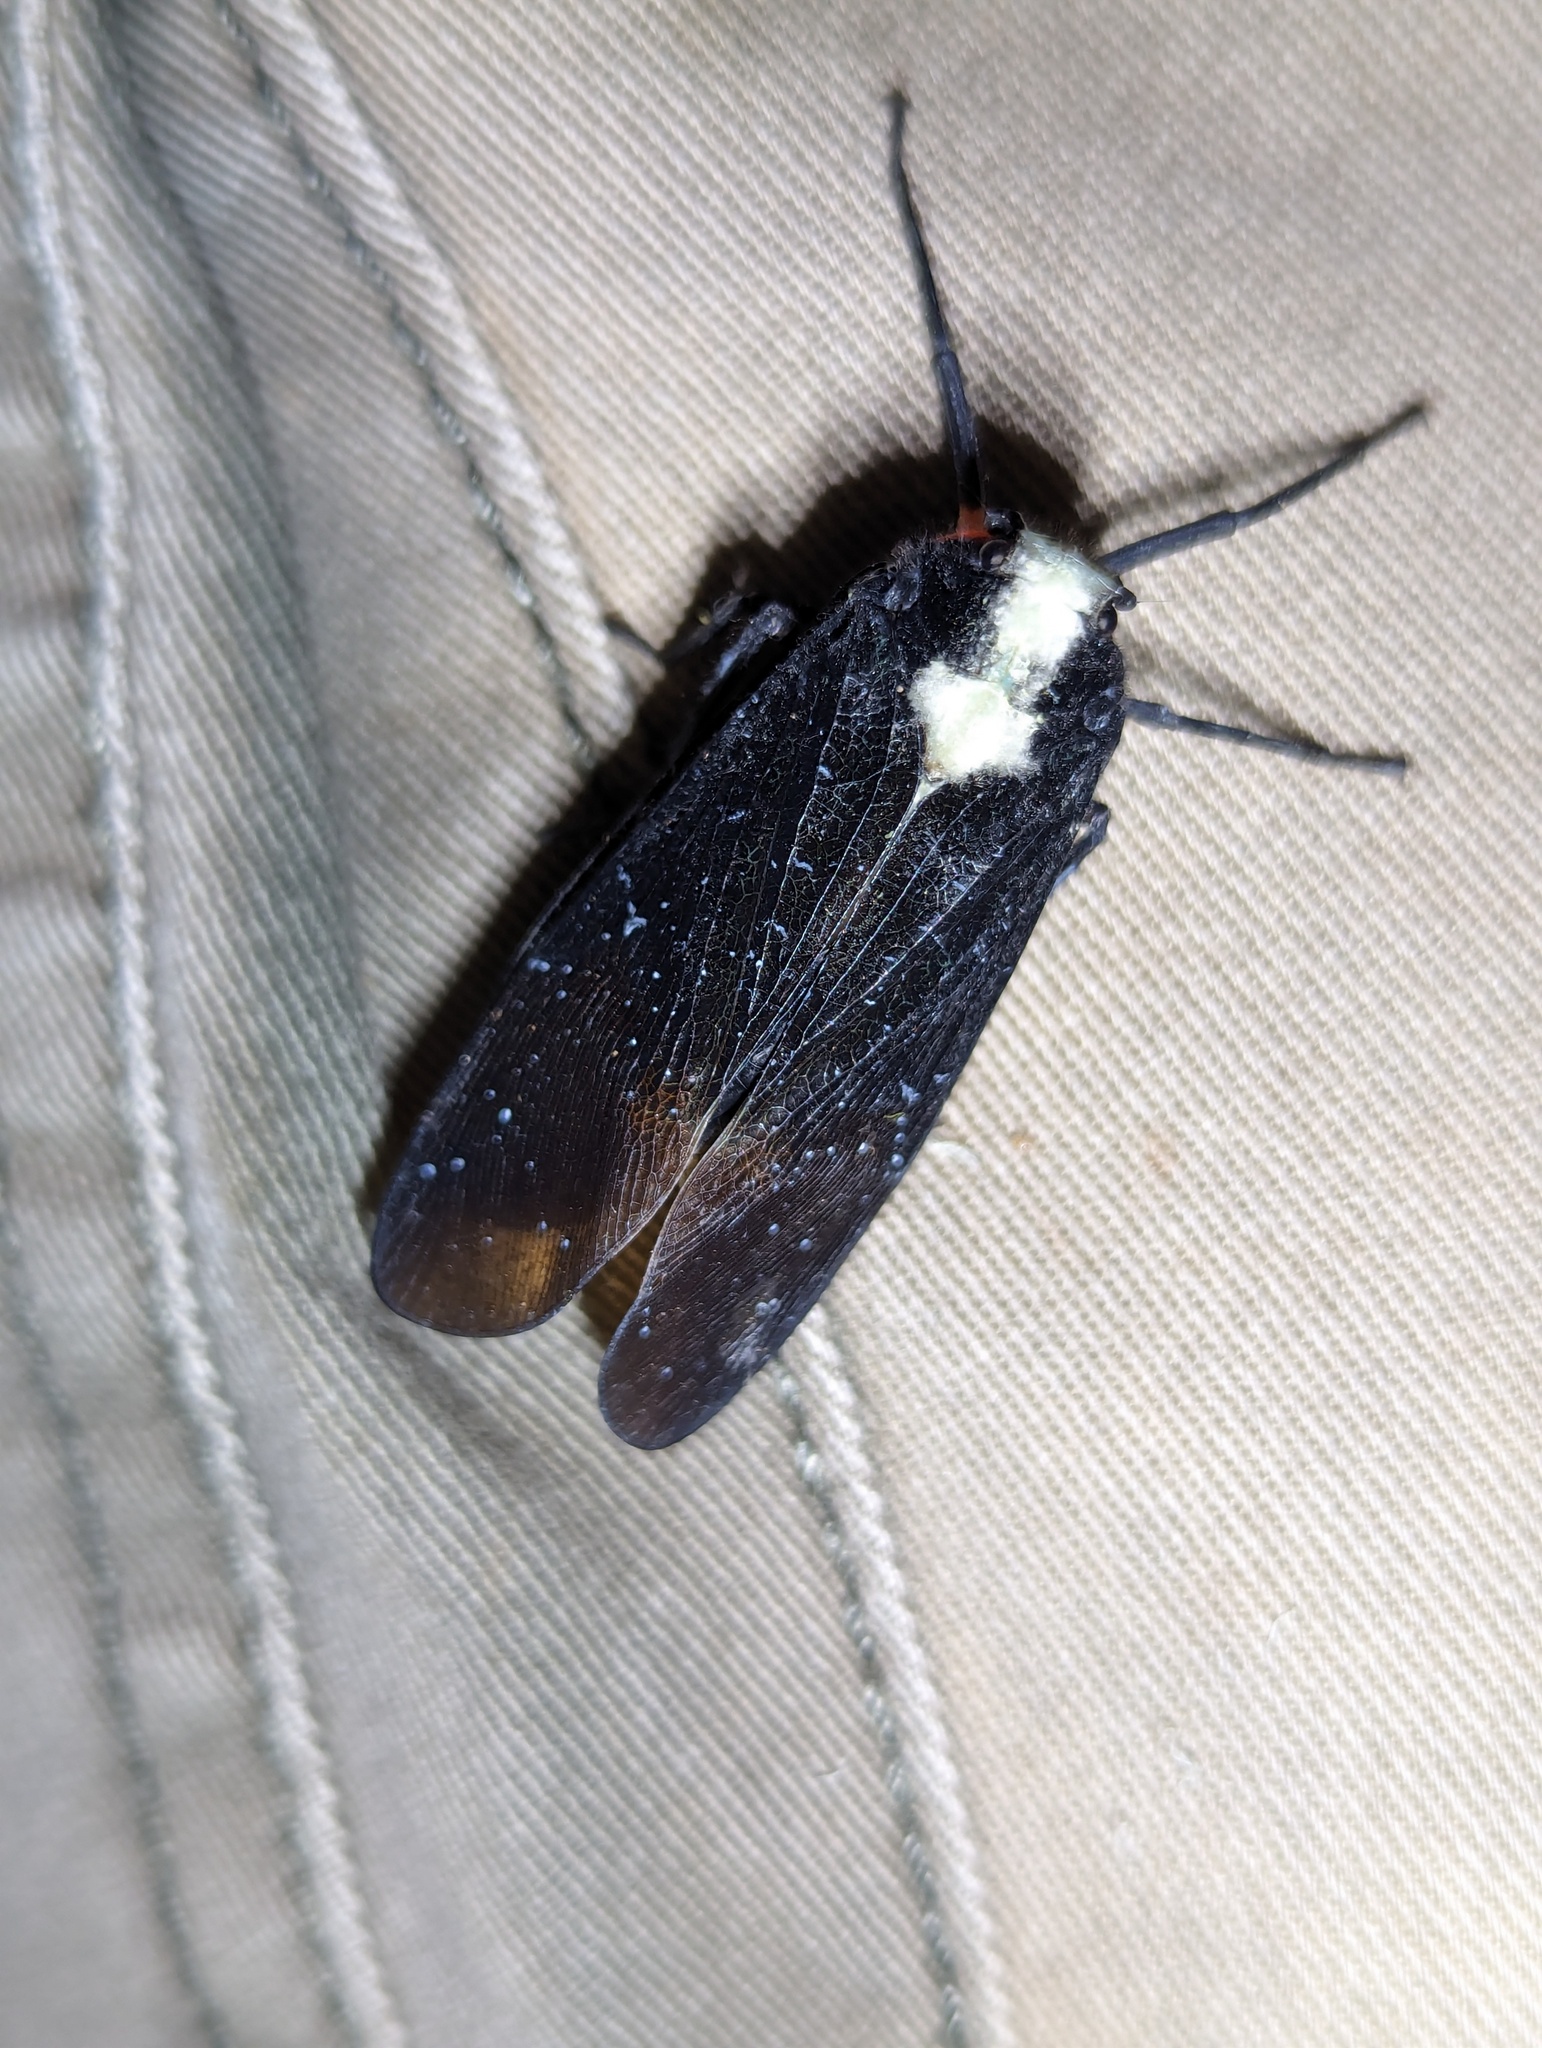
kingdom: Animalia
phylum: Arthropoda
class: Insecta
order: Hemiptera
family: Fulgoridae
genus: Menenia
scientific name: Menenia terebrifera
